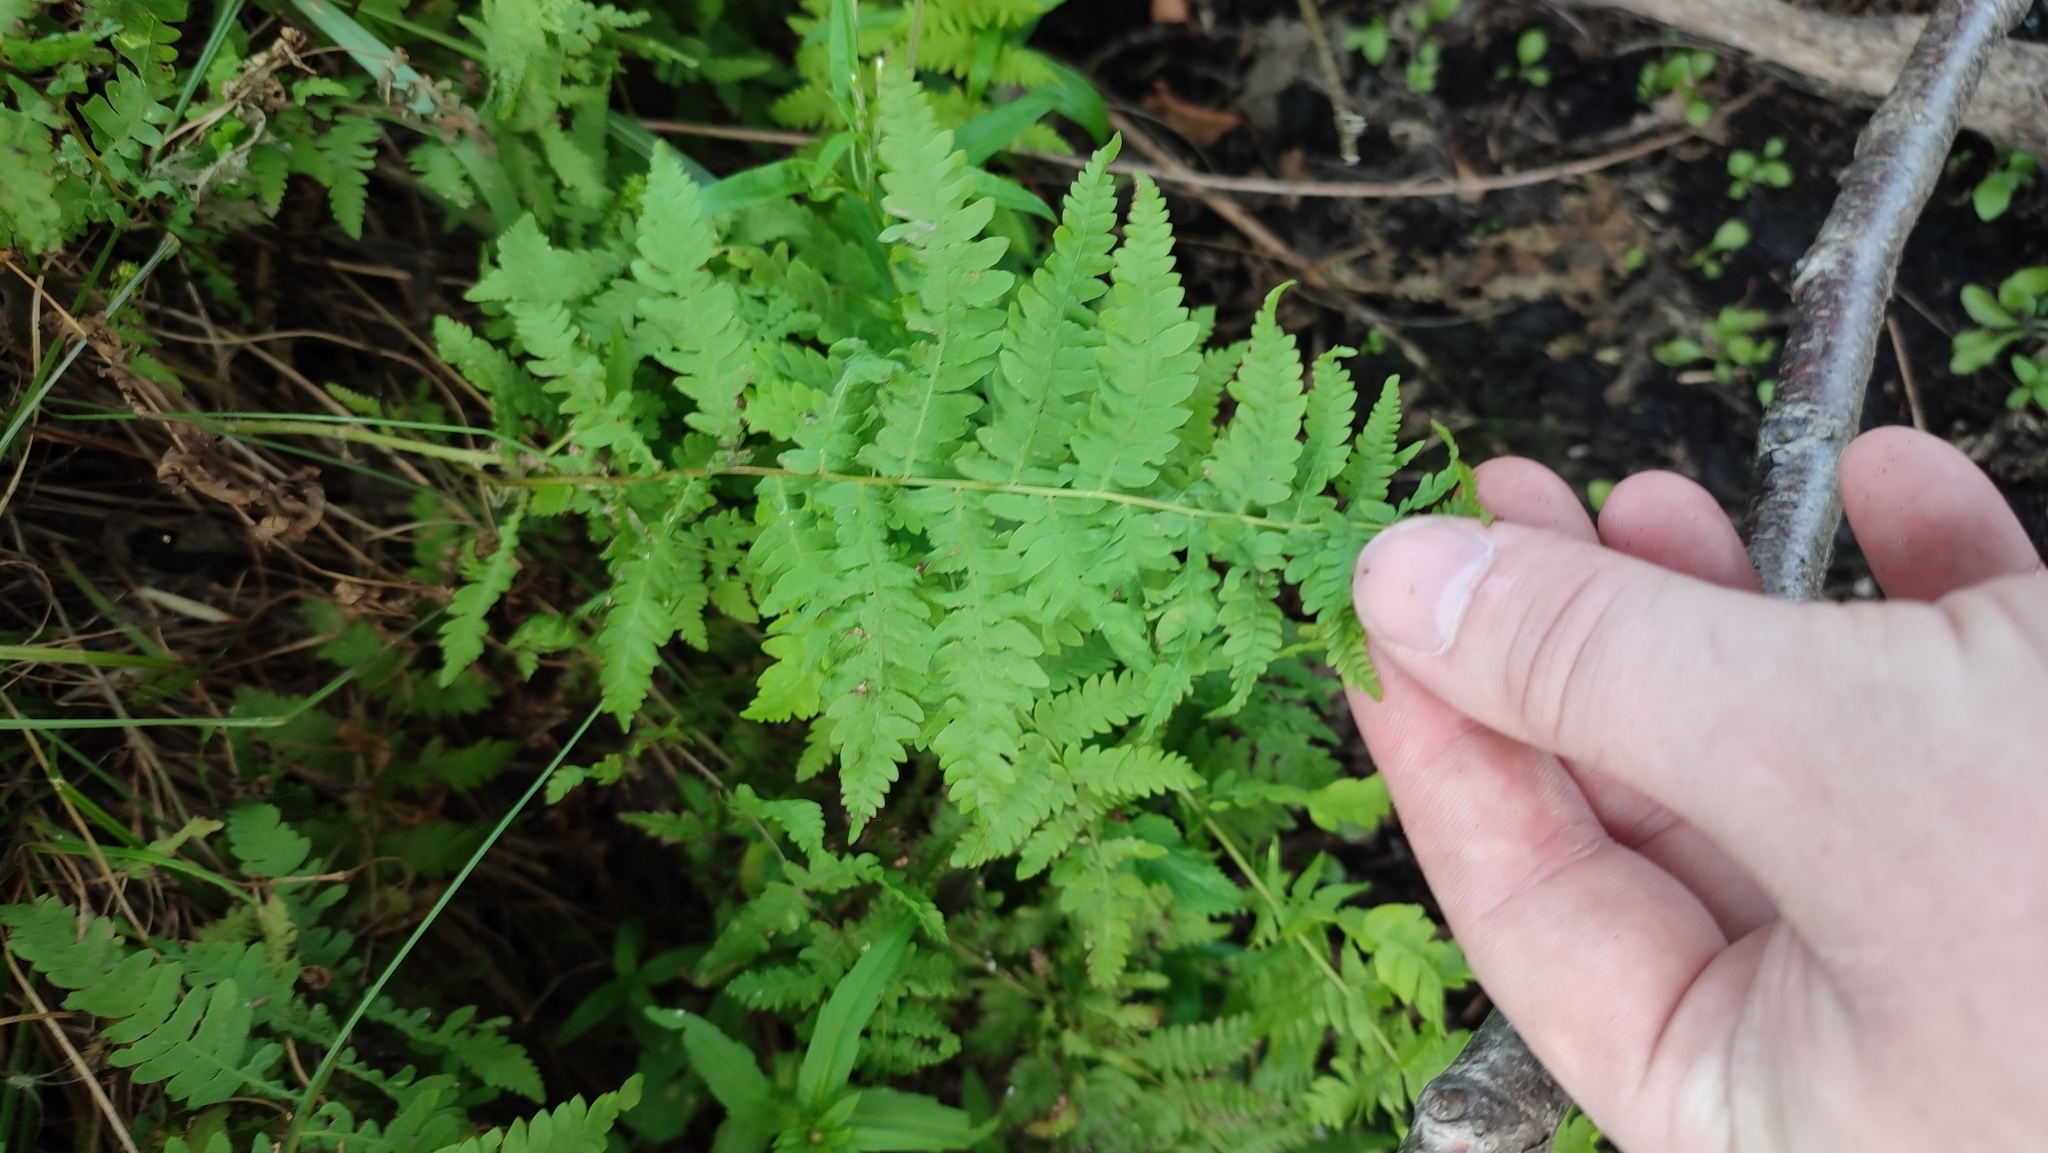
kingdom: Plantae
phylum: Tracheophyta
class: Polypodiopsida
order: Polypodiales
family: Thelypteridaceae
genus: Thelypteris
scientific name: Thelypteris palustris
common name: Marsh fern
